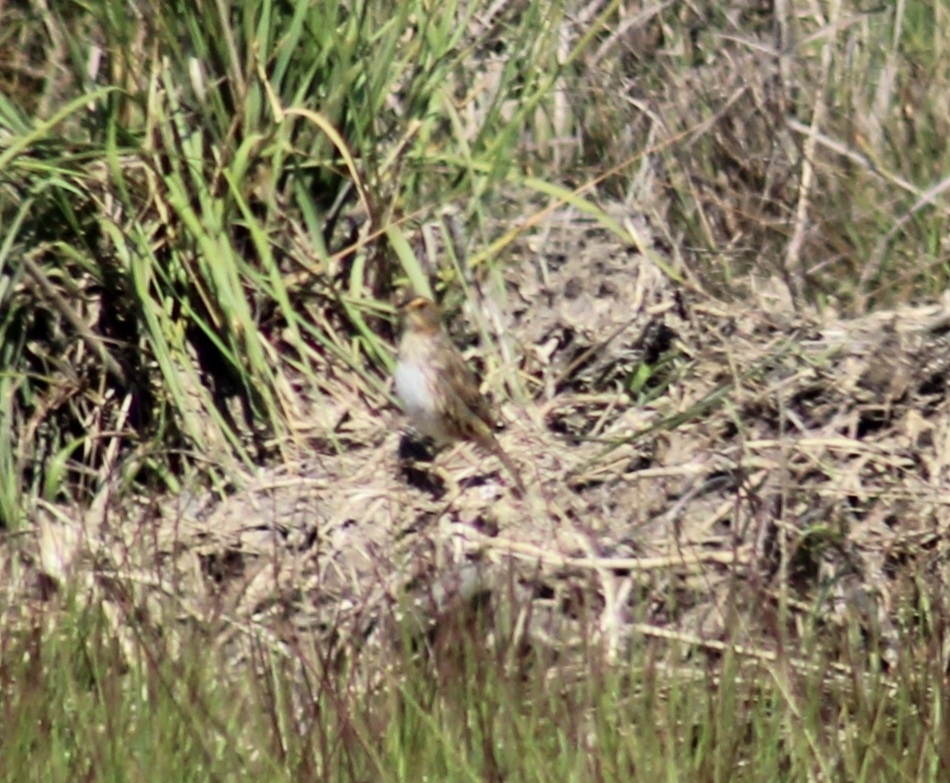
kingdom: Animalia
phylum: Chordata
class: Aves
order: Passeriformes
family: Passerellidae
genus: Ammospiza
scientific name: Ammospiza caudacuta
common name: Saltmarsh sparrow
